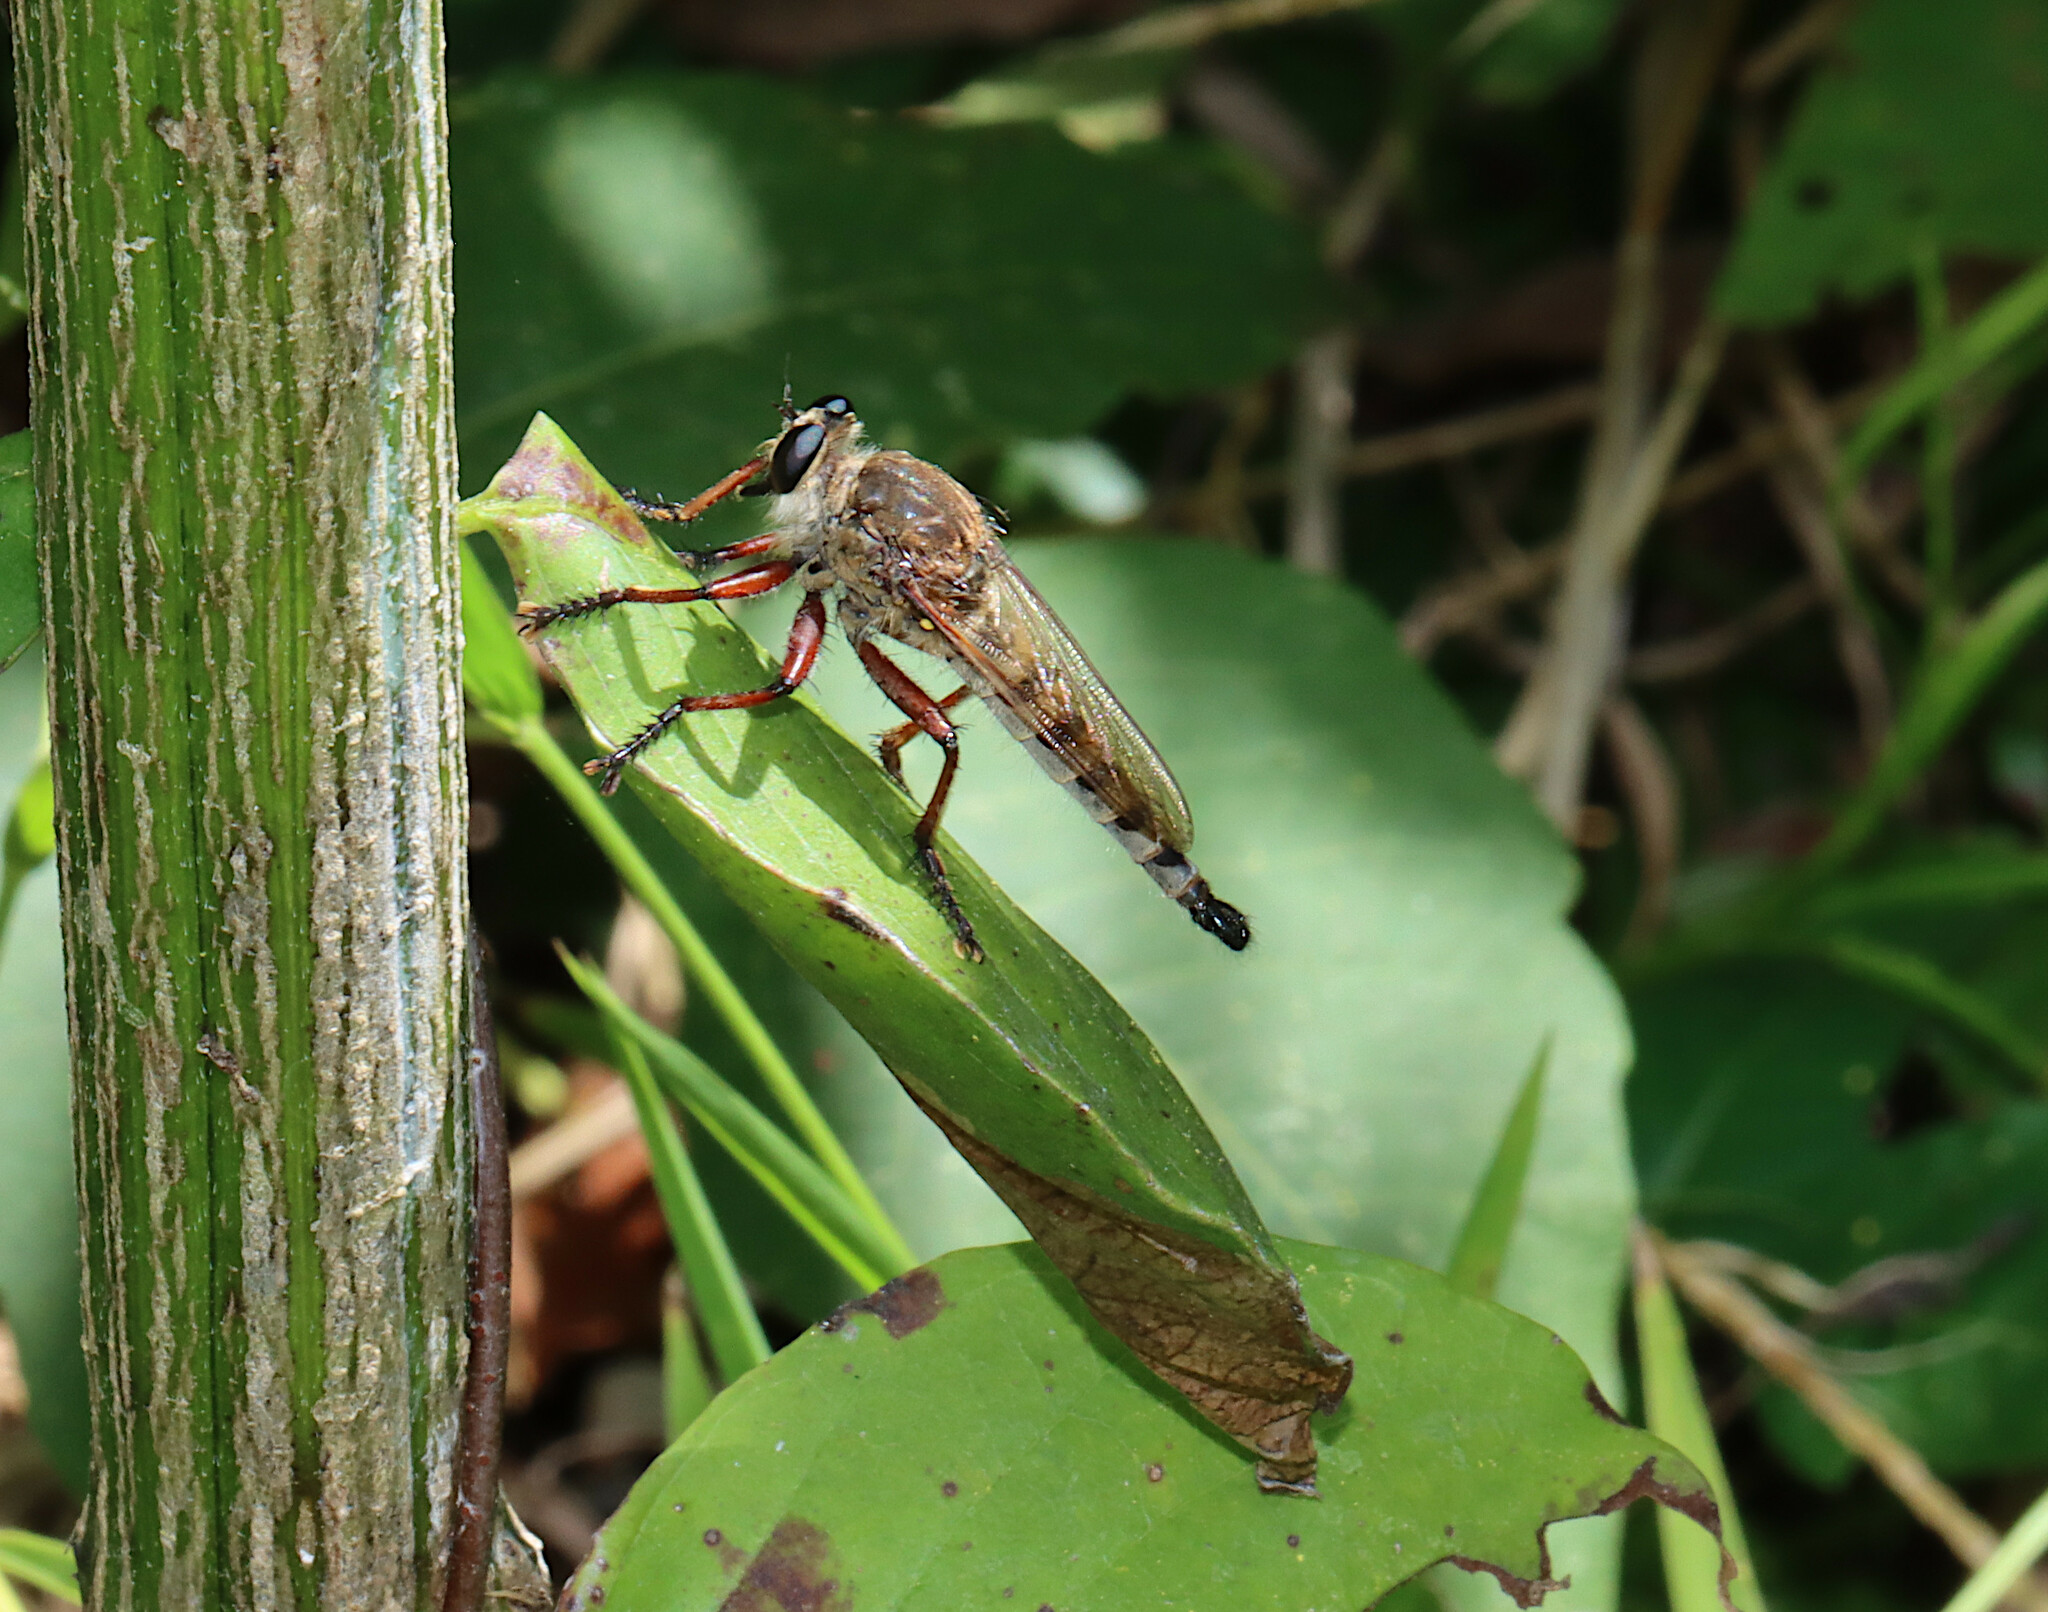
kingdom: Animalia
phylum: Arthropoda
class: Insecta
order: Diptera
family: Asilidae
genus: Promachus
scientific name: Promachus hinei
